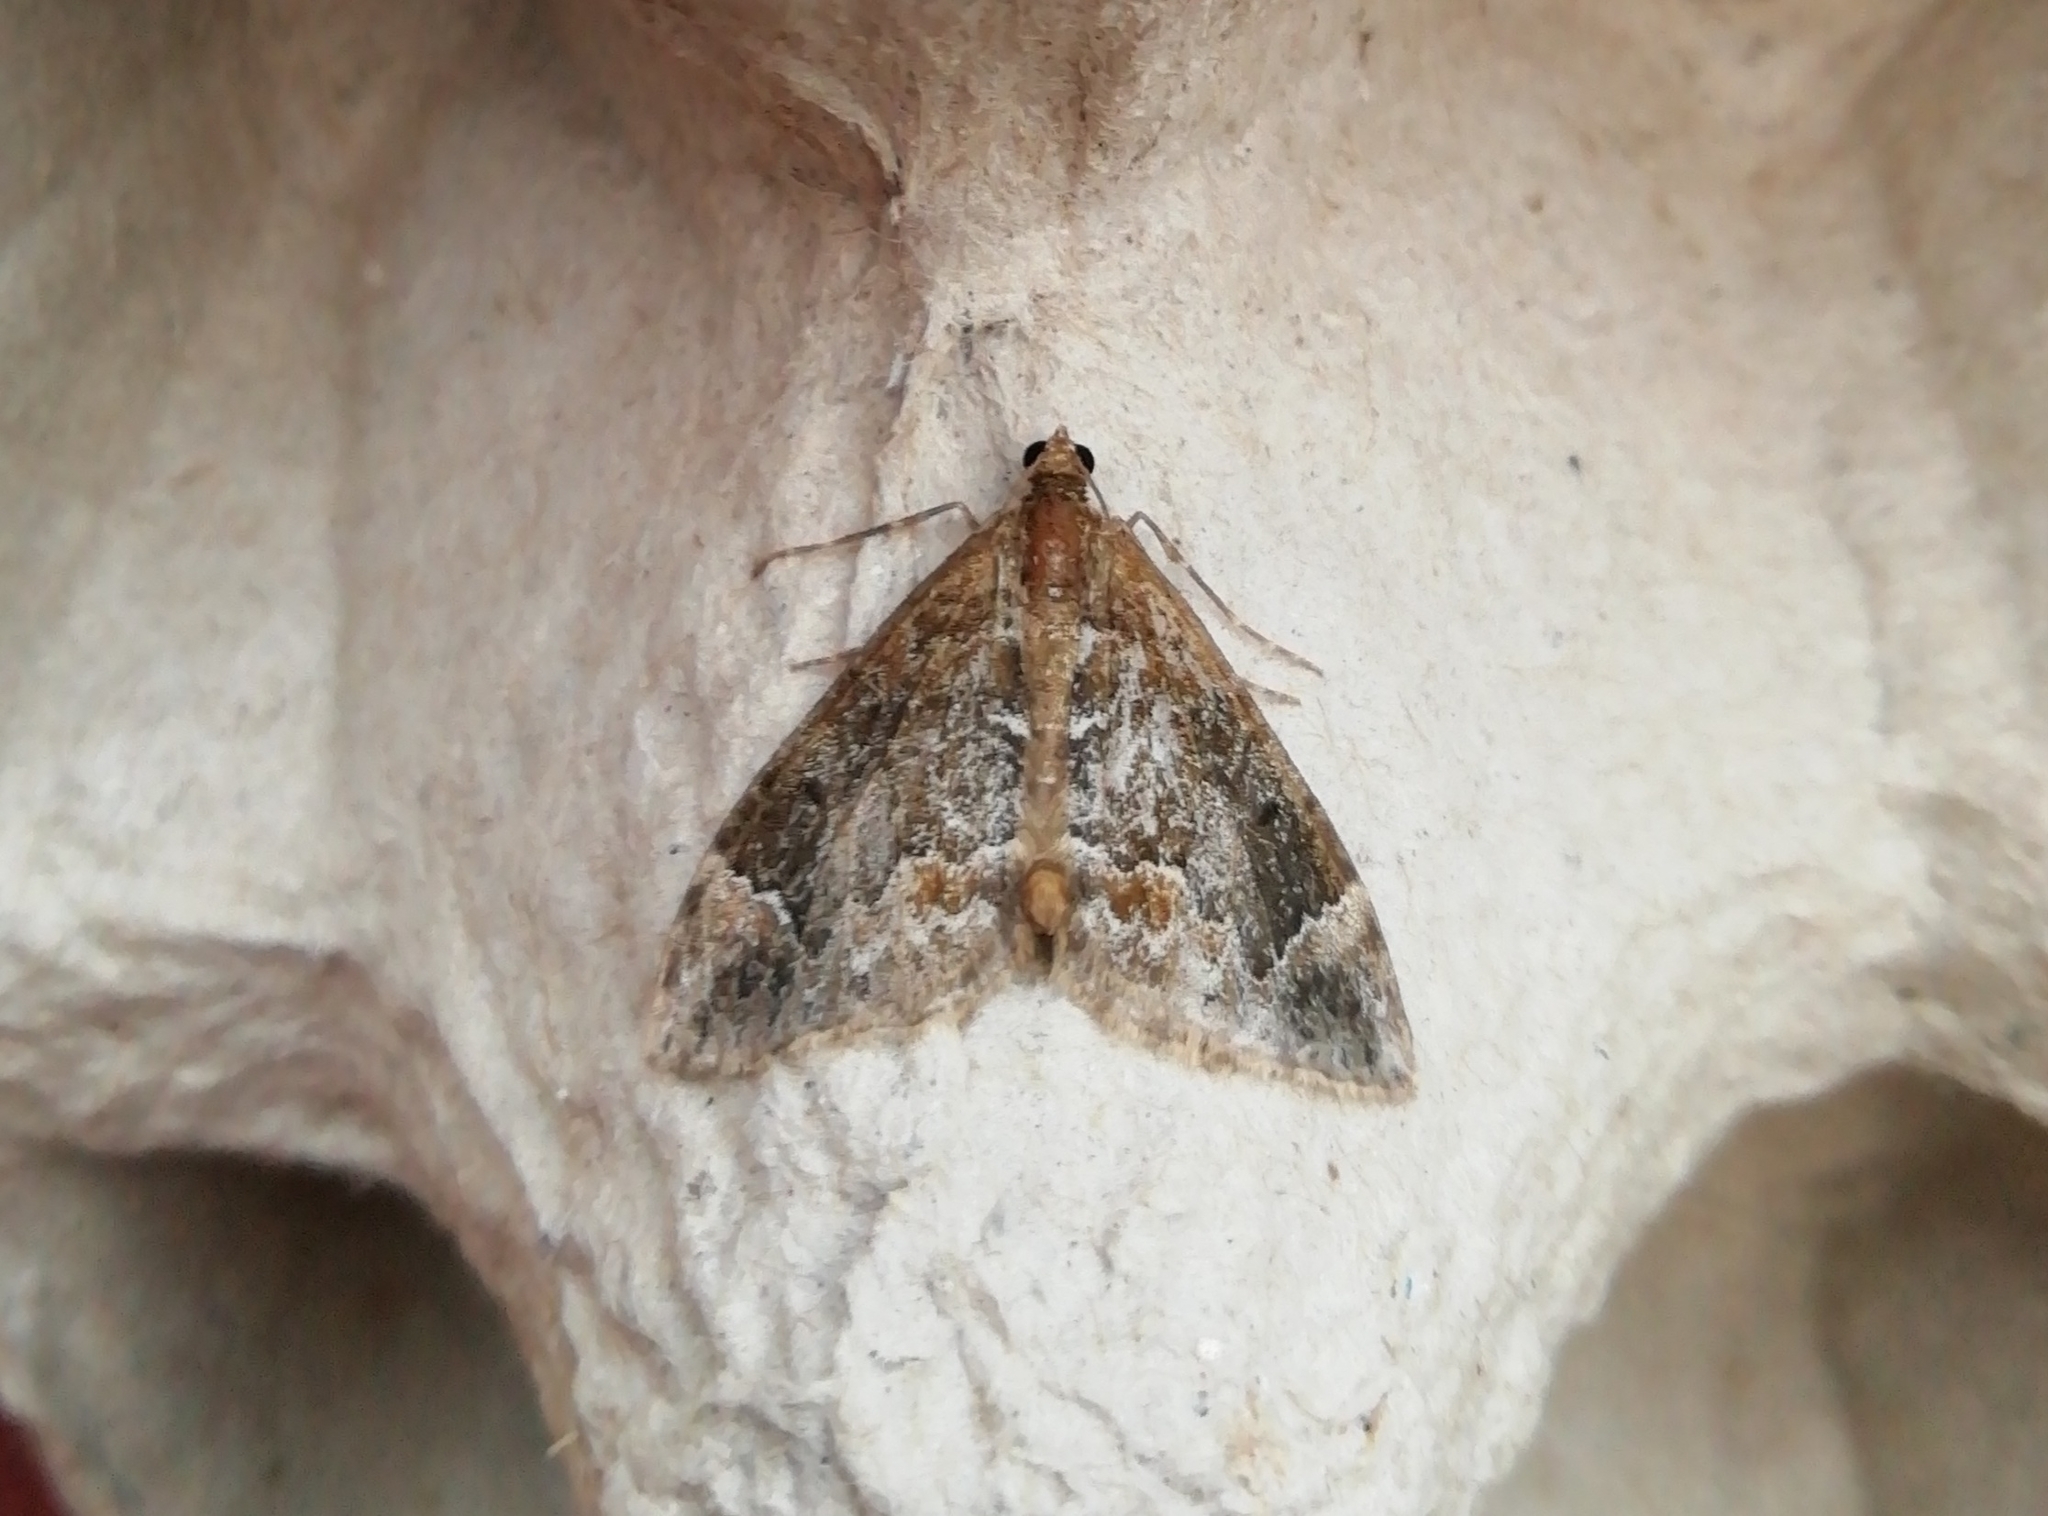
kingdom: Animalia
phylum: Arthropoda
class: Insecta
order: Lepidoptera
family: Geometridae
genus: Dysstroma
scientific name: Dysstroma citrata
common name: Dark marbled carpet
